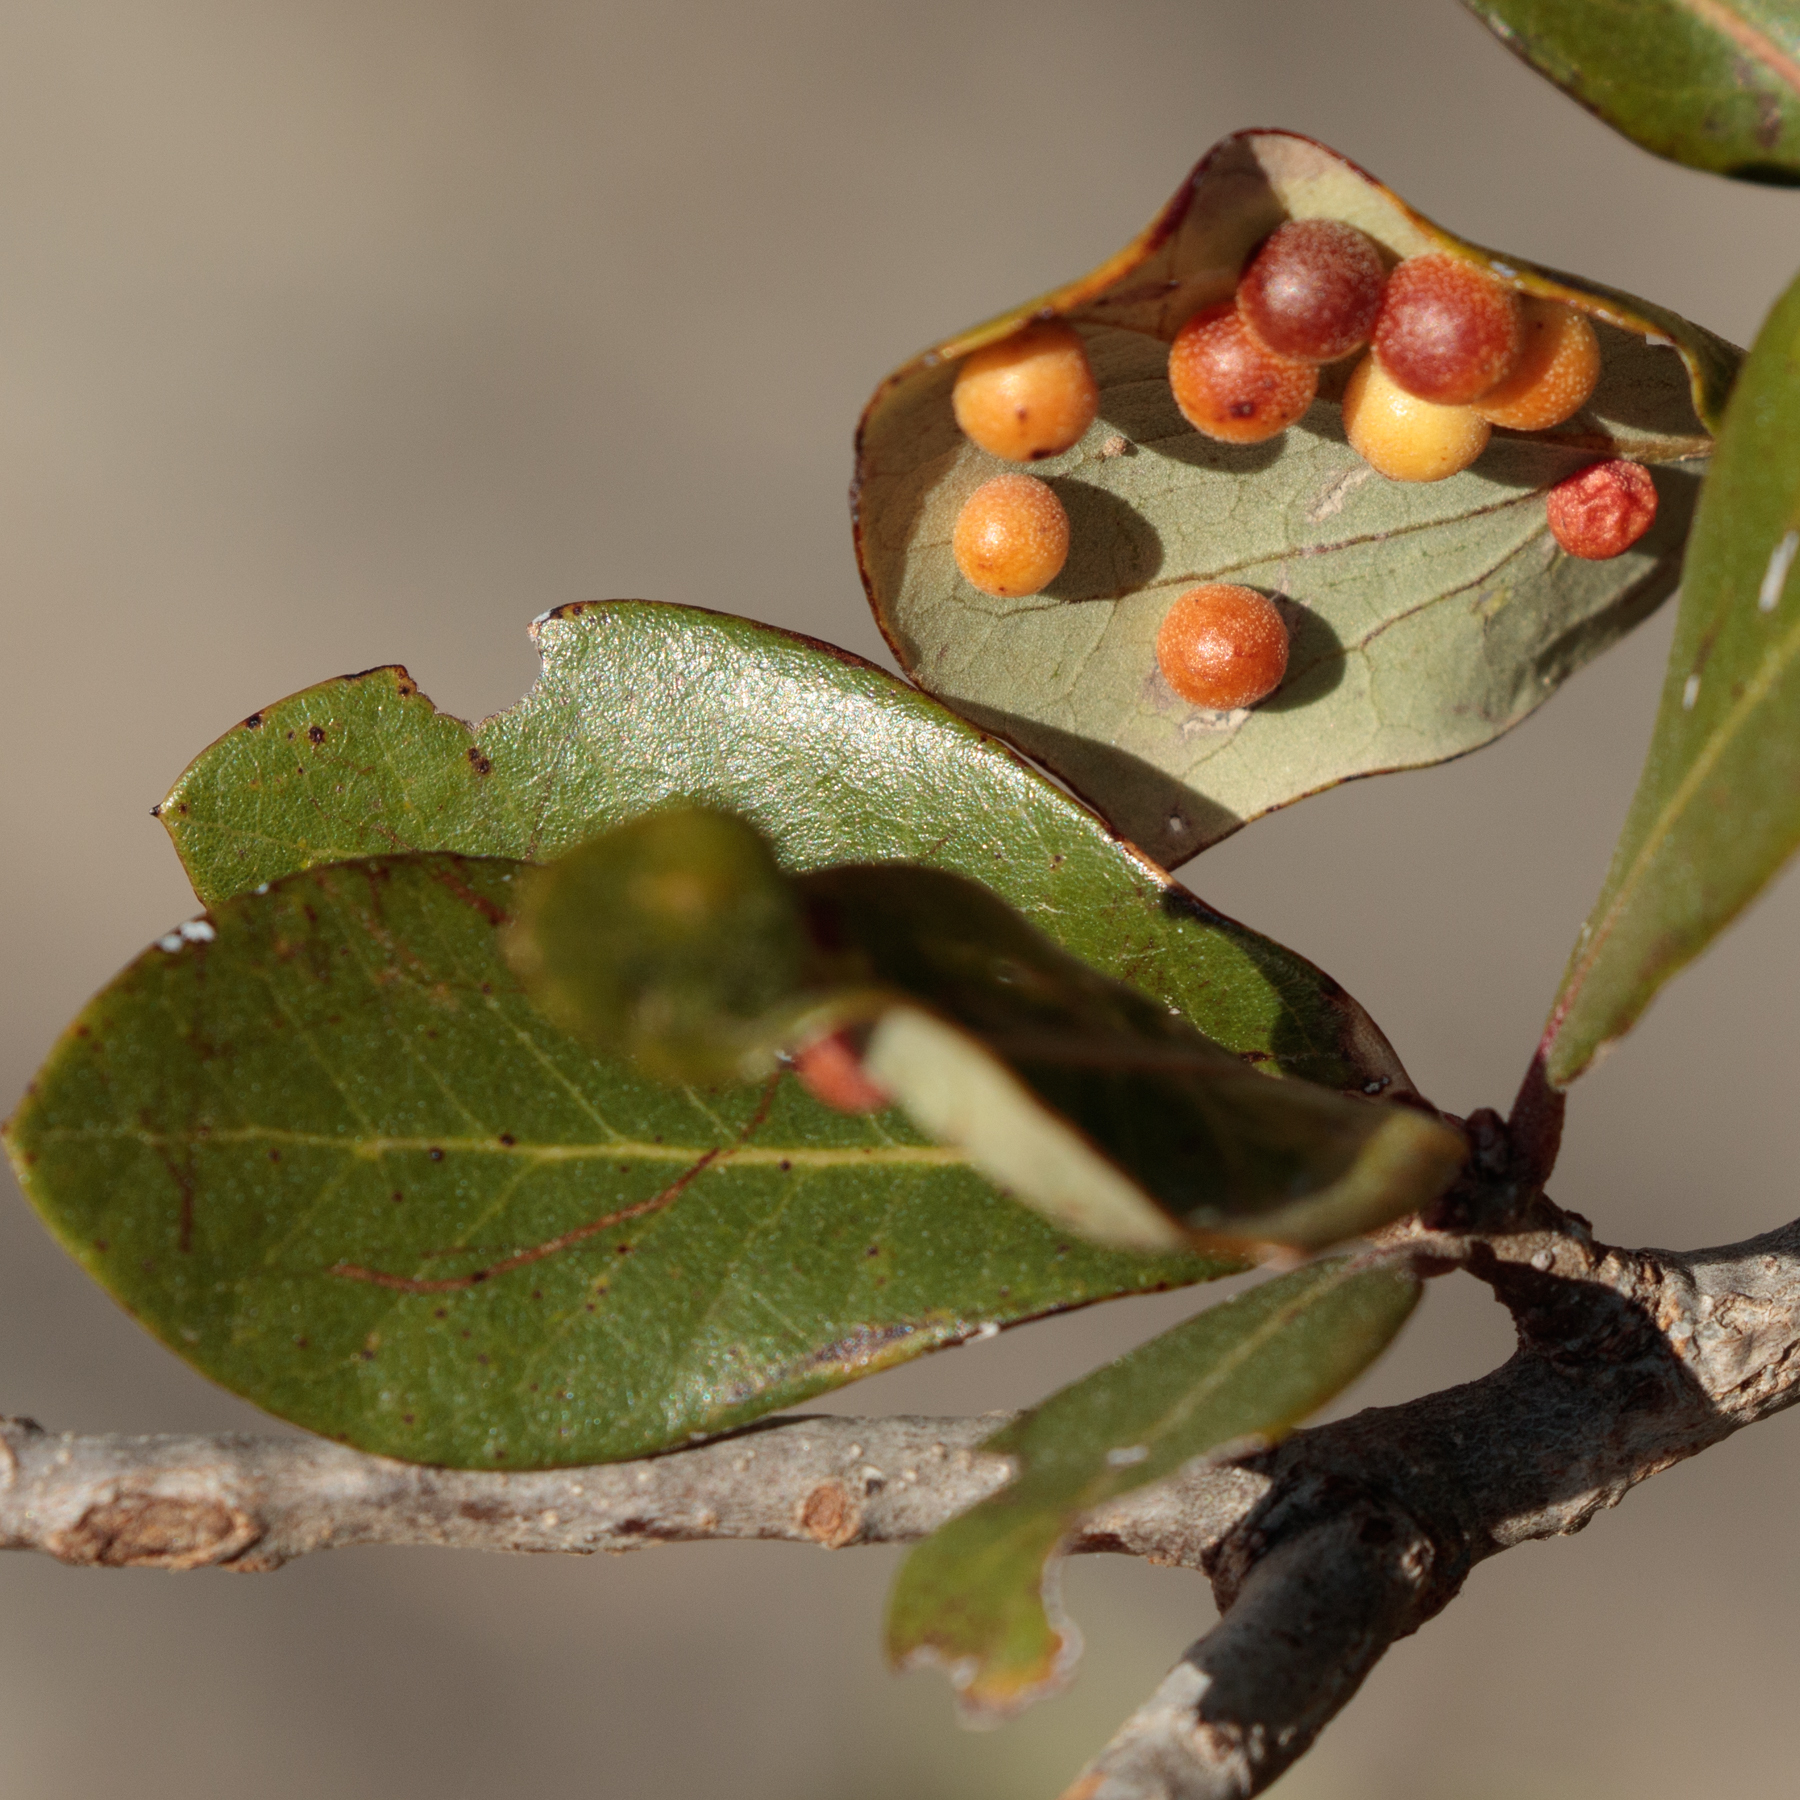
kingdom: Animalia
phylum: Arthropoda
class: Insecta
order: Hymenoptera
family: Cynipidae
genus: Belonocnema
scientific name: Belonocnema kinseyi
